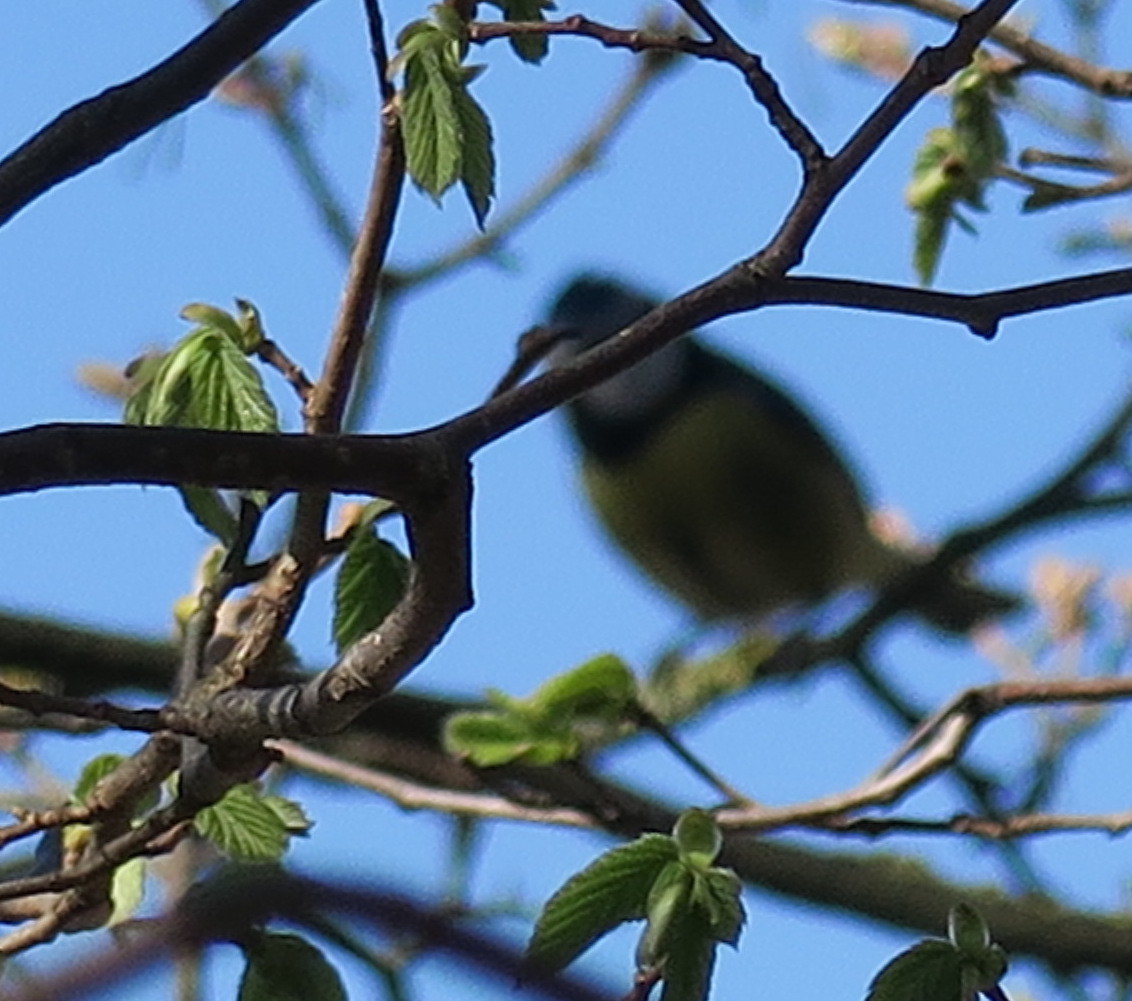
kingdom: Animalia
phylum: Chordata
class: Aves
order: Passeriformes
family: Paridae
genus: Cyanistes
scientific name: Cyanistes caeruleus
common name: Eurasian blue tit
